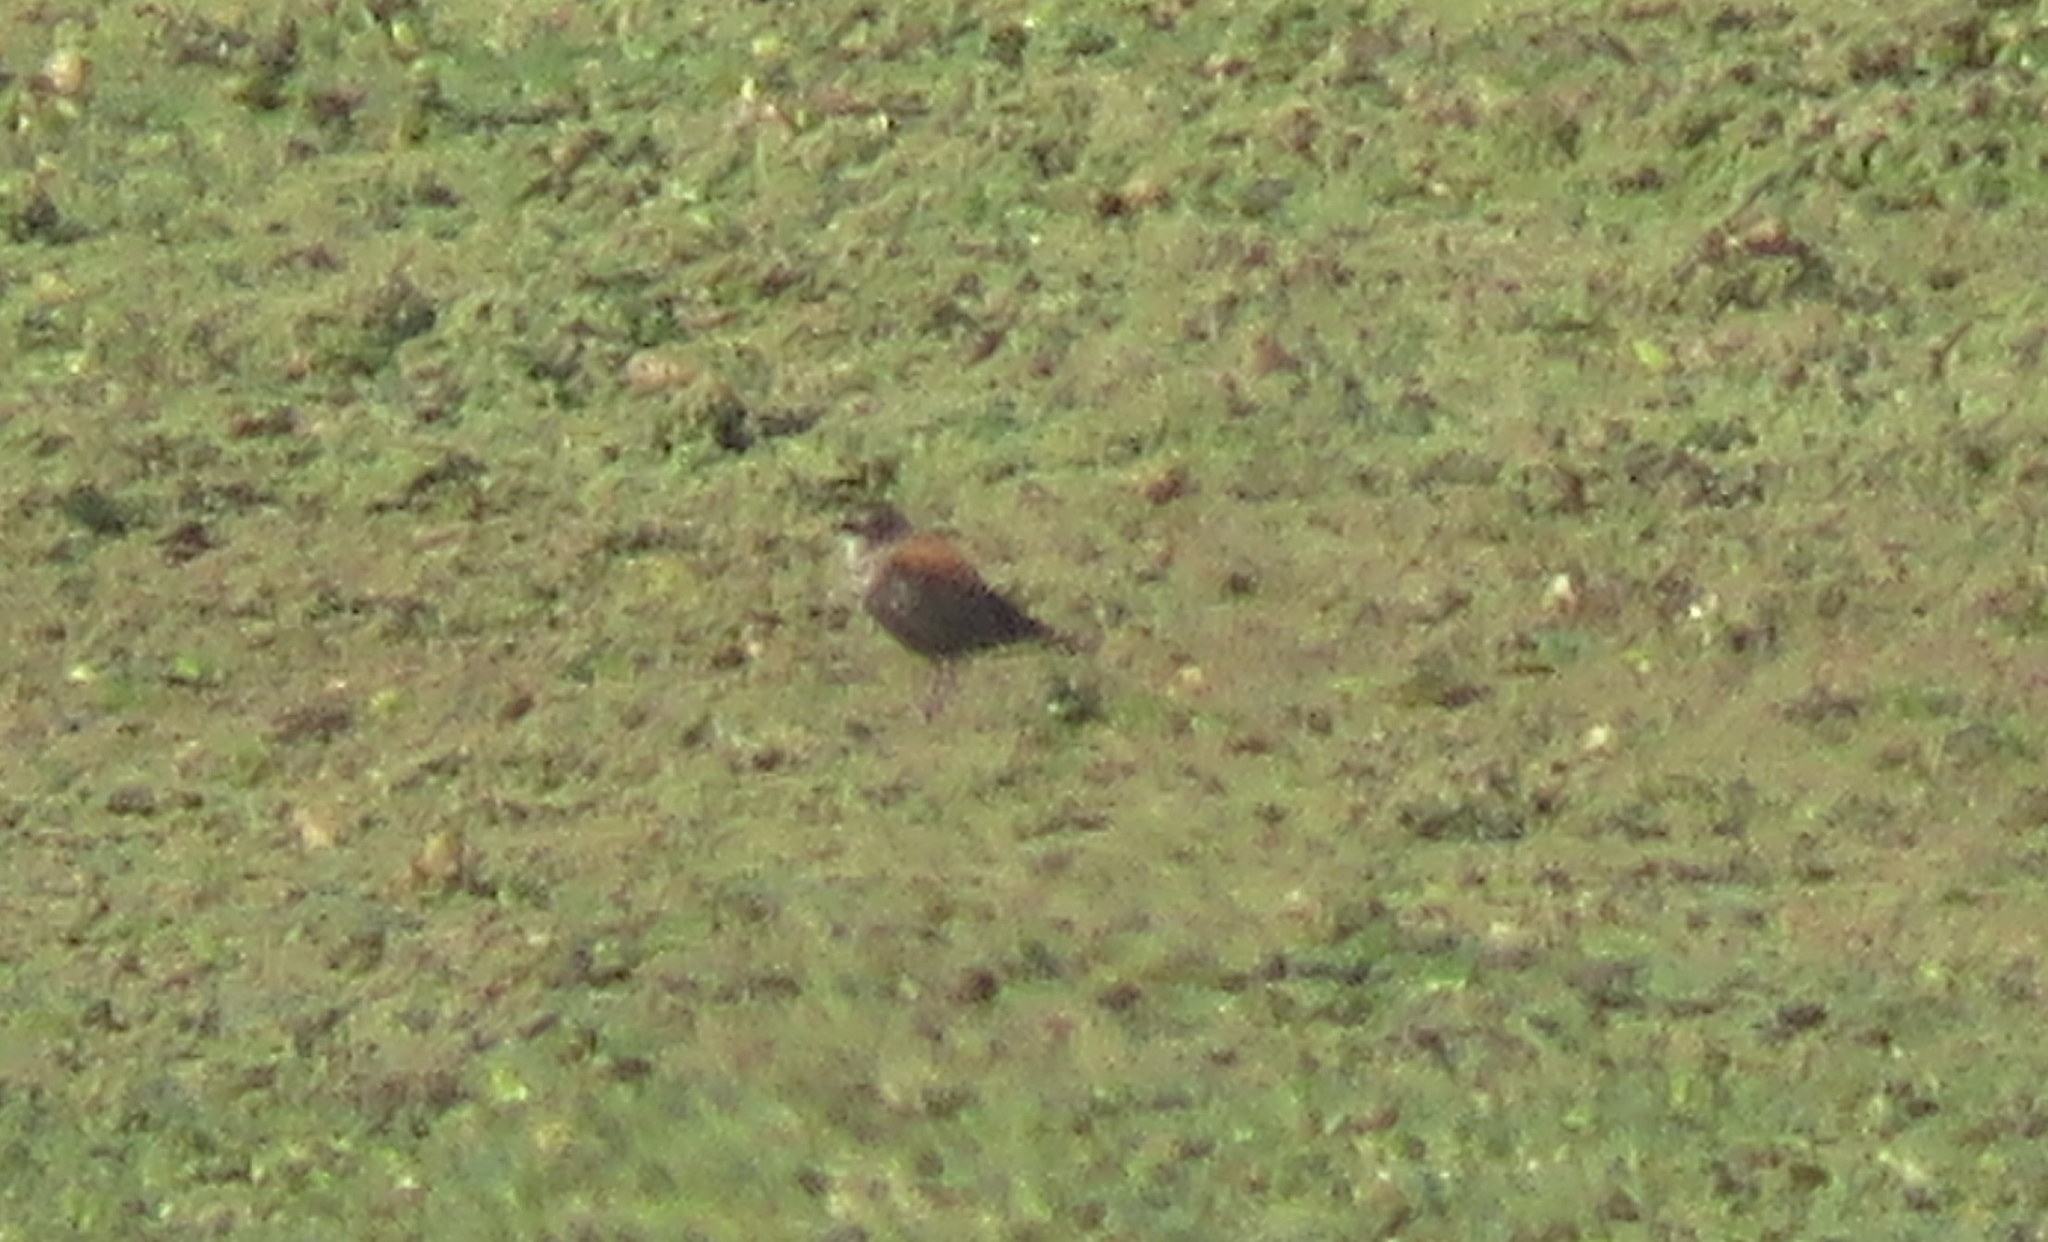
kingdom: Animalia
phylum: Chordata
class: Aves
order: Passeriformes
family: Tyrannidae
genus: Lessonia
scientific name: Lessonia rufa
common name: Austral negrito
